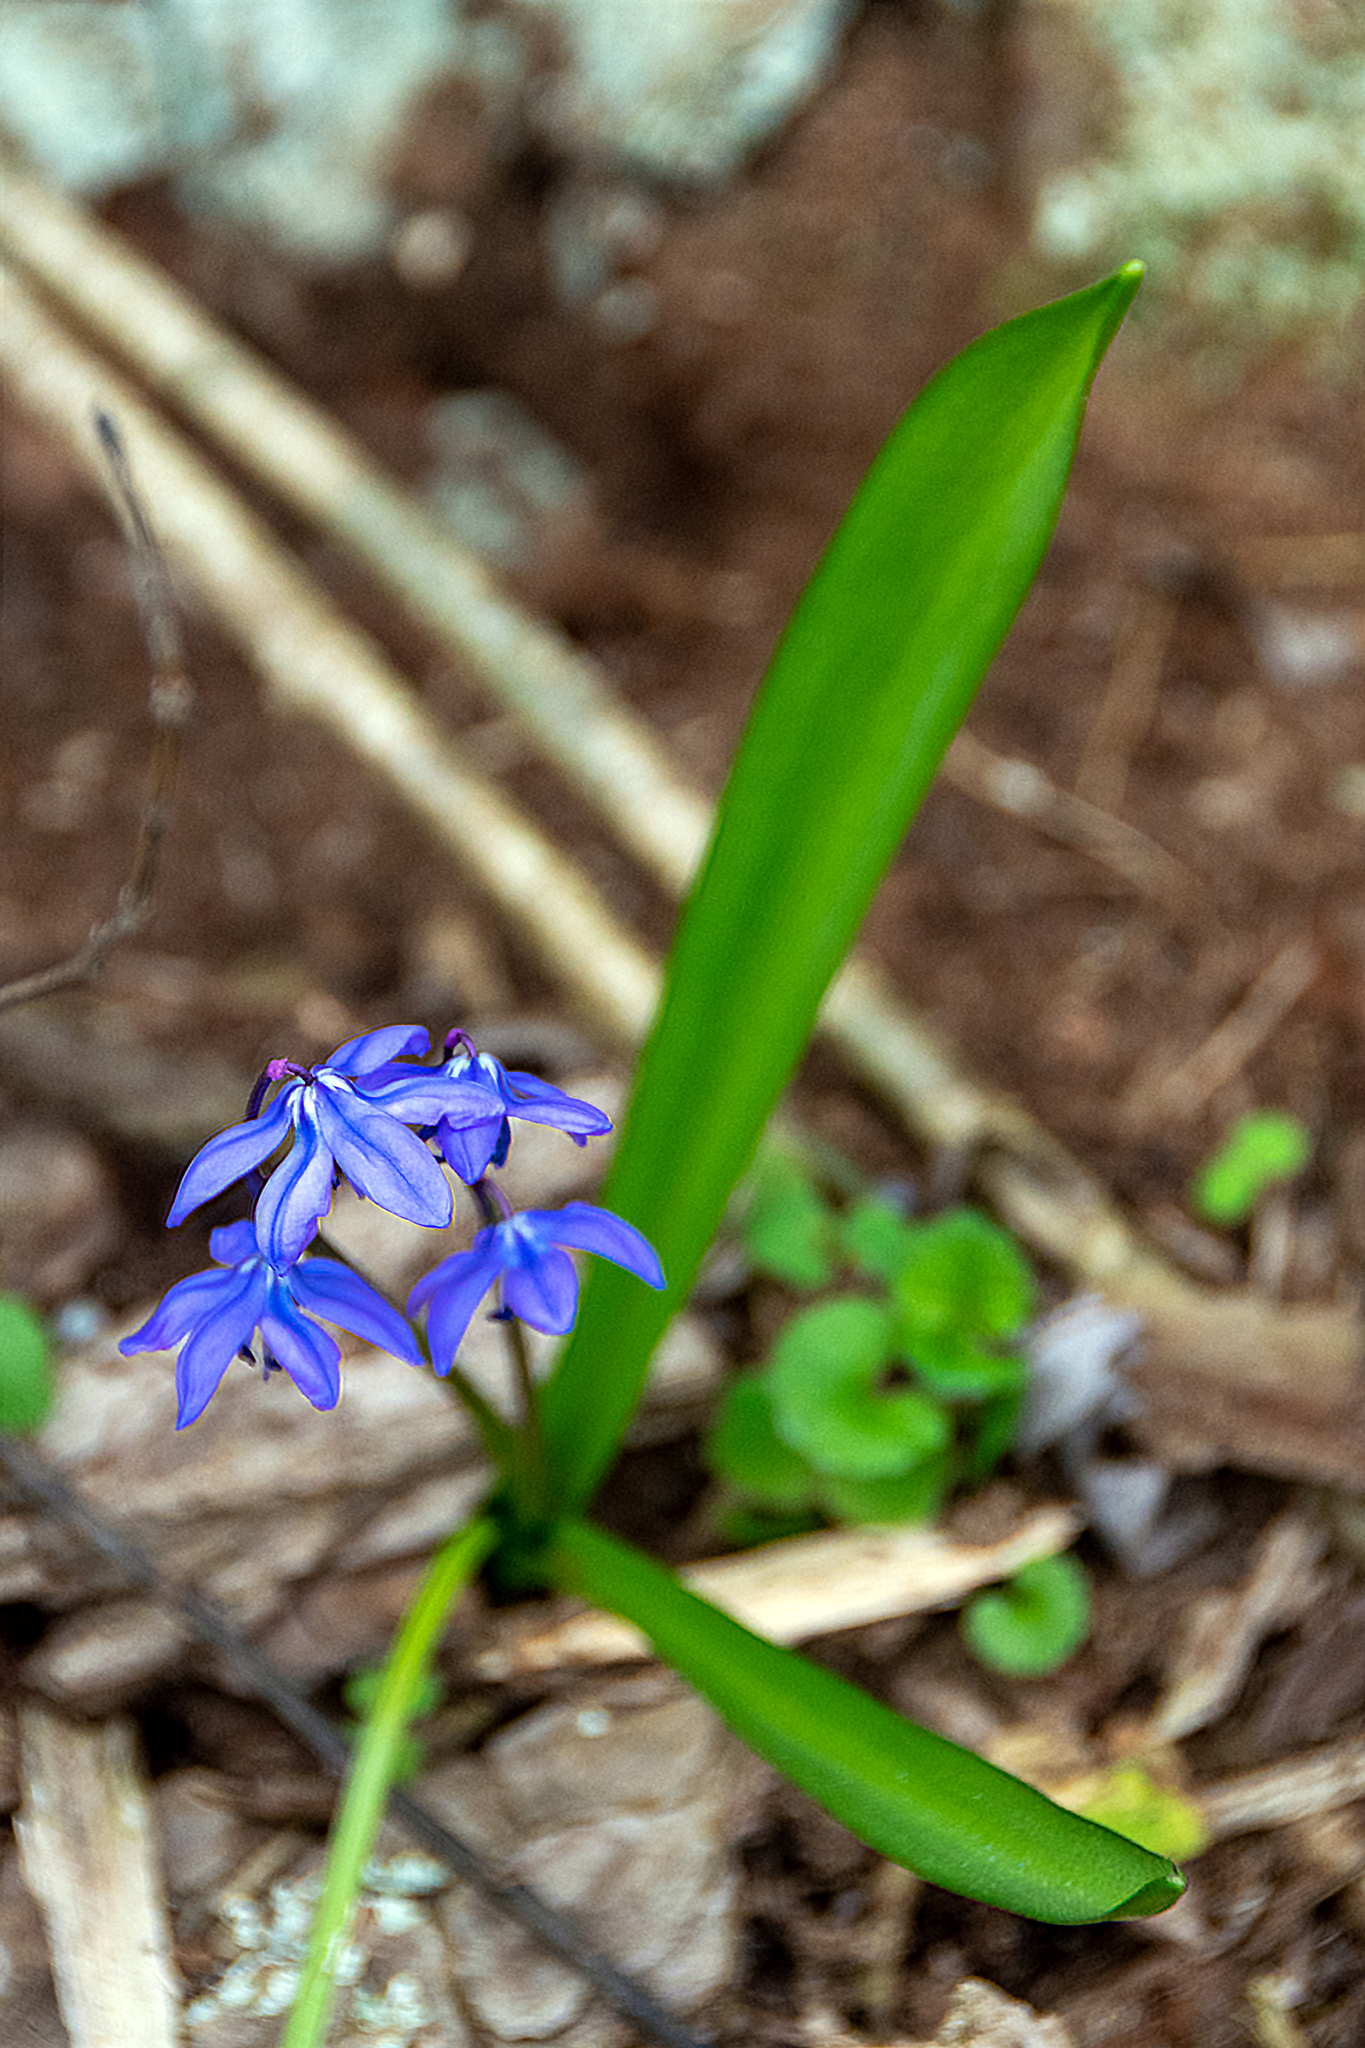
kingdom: Plantae
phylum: Tracheophyta
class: Liliopsida
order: Asparagales
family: Asparagaceae
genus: Scilla
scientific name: Scilla siberica
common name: Siberian squill
